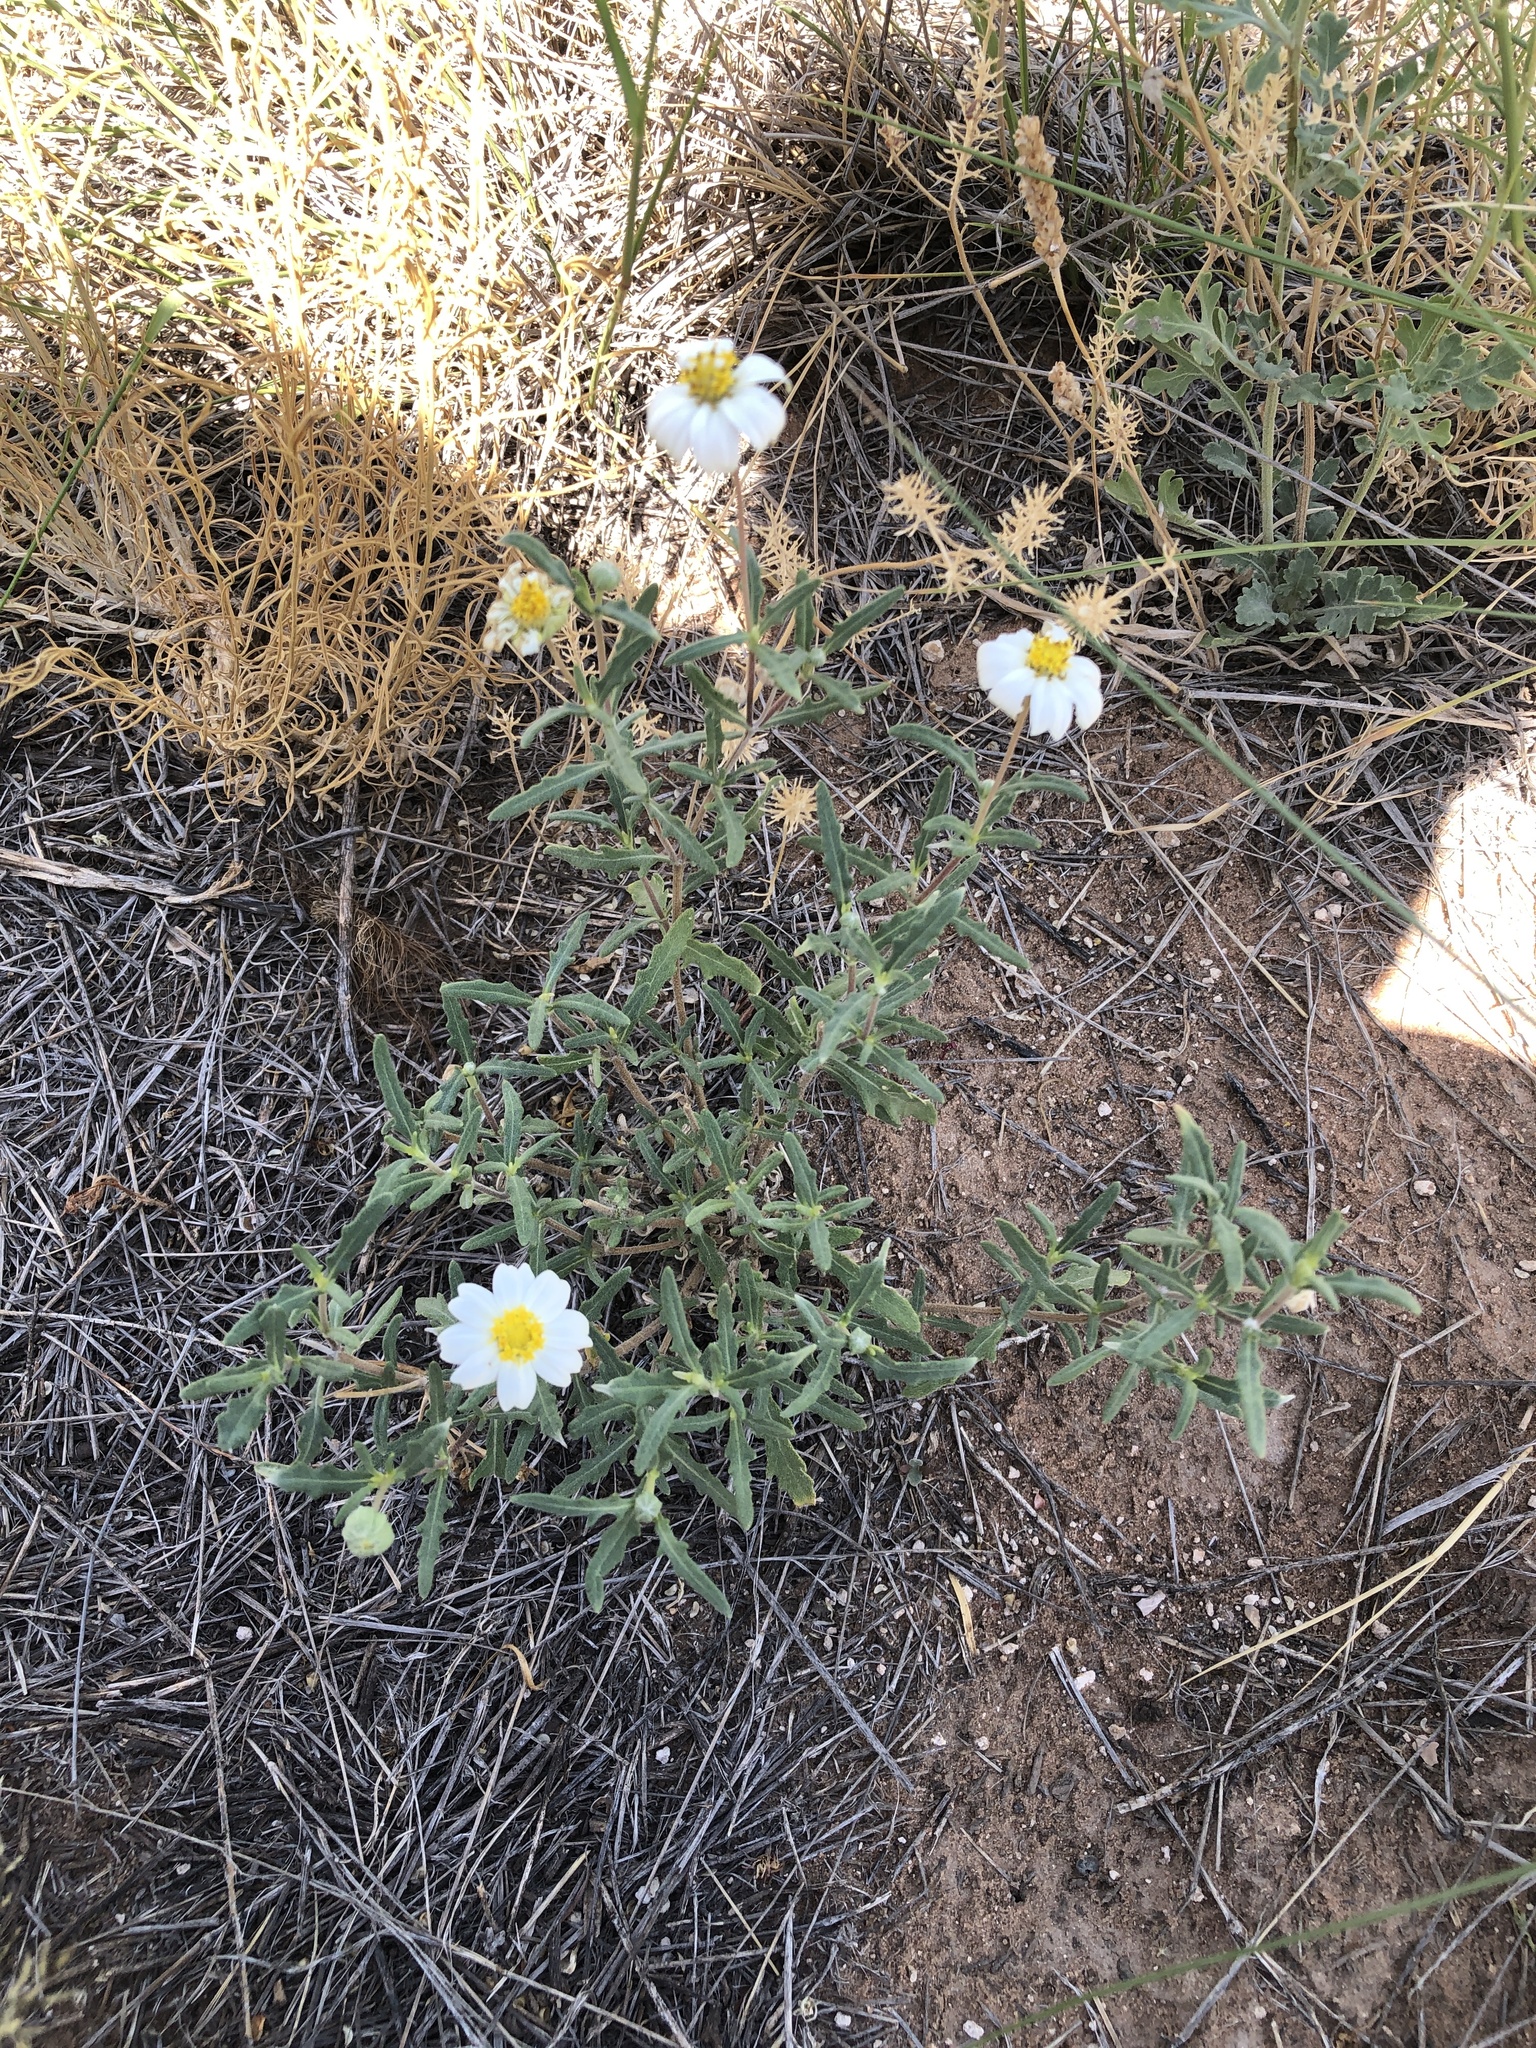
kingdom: Plantae
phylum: Tracheophyta
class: Magnoliopsida
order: Asterales
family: Asteraceae
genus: Melampodium
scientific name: Melampodium leucanthum
